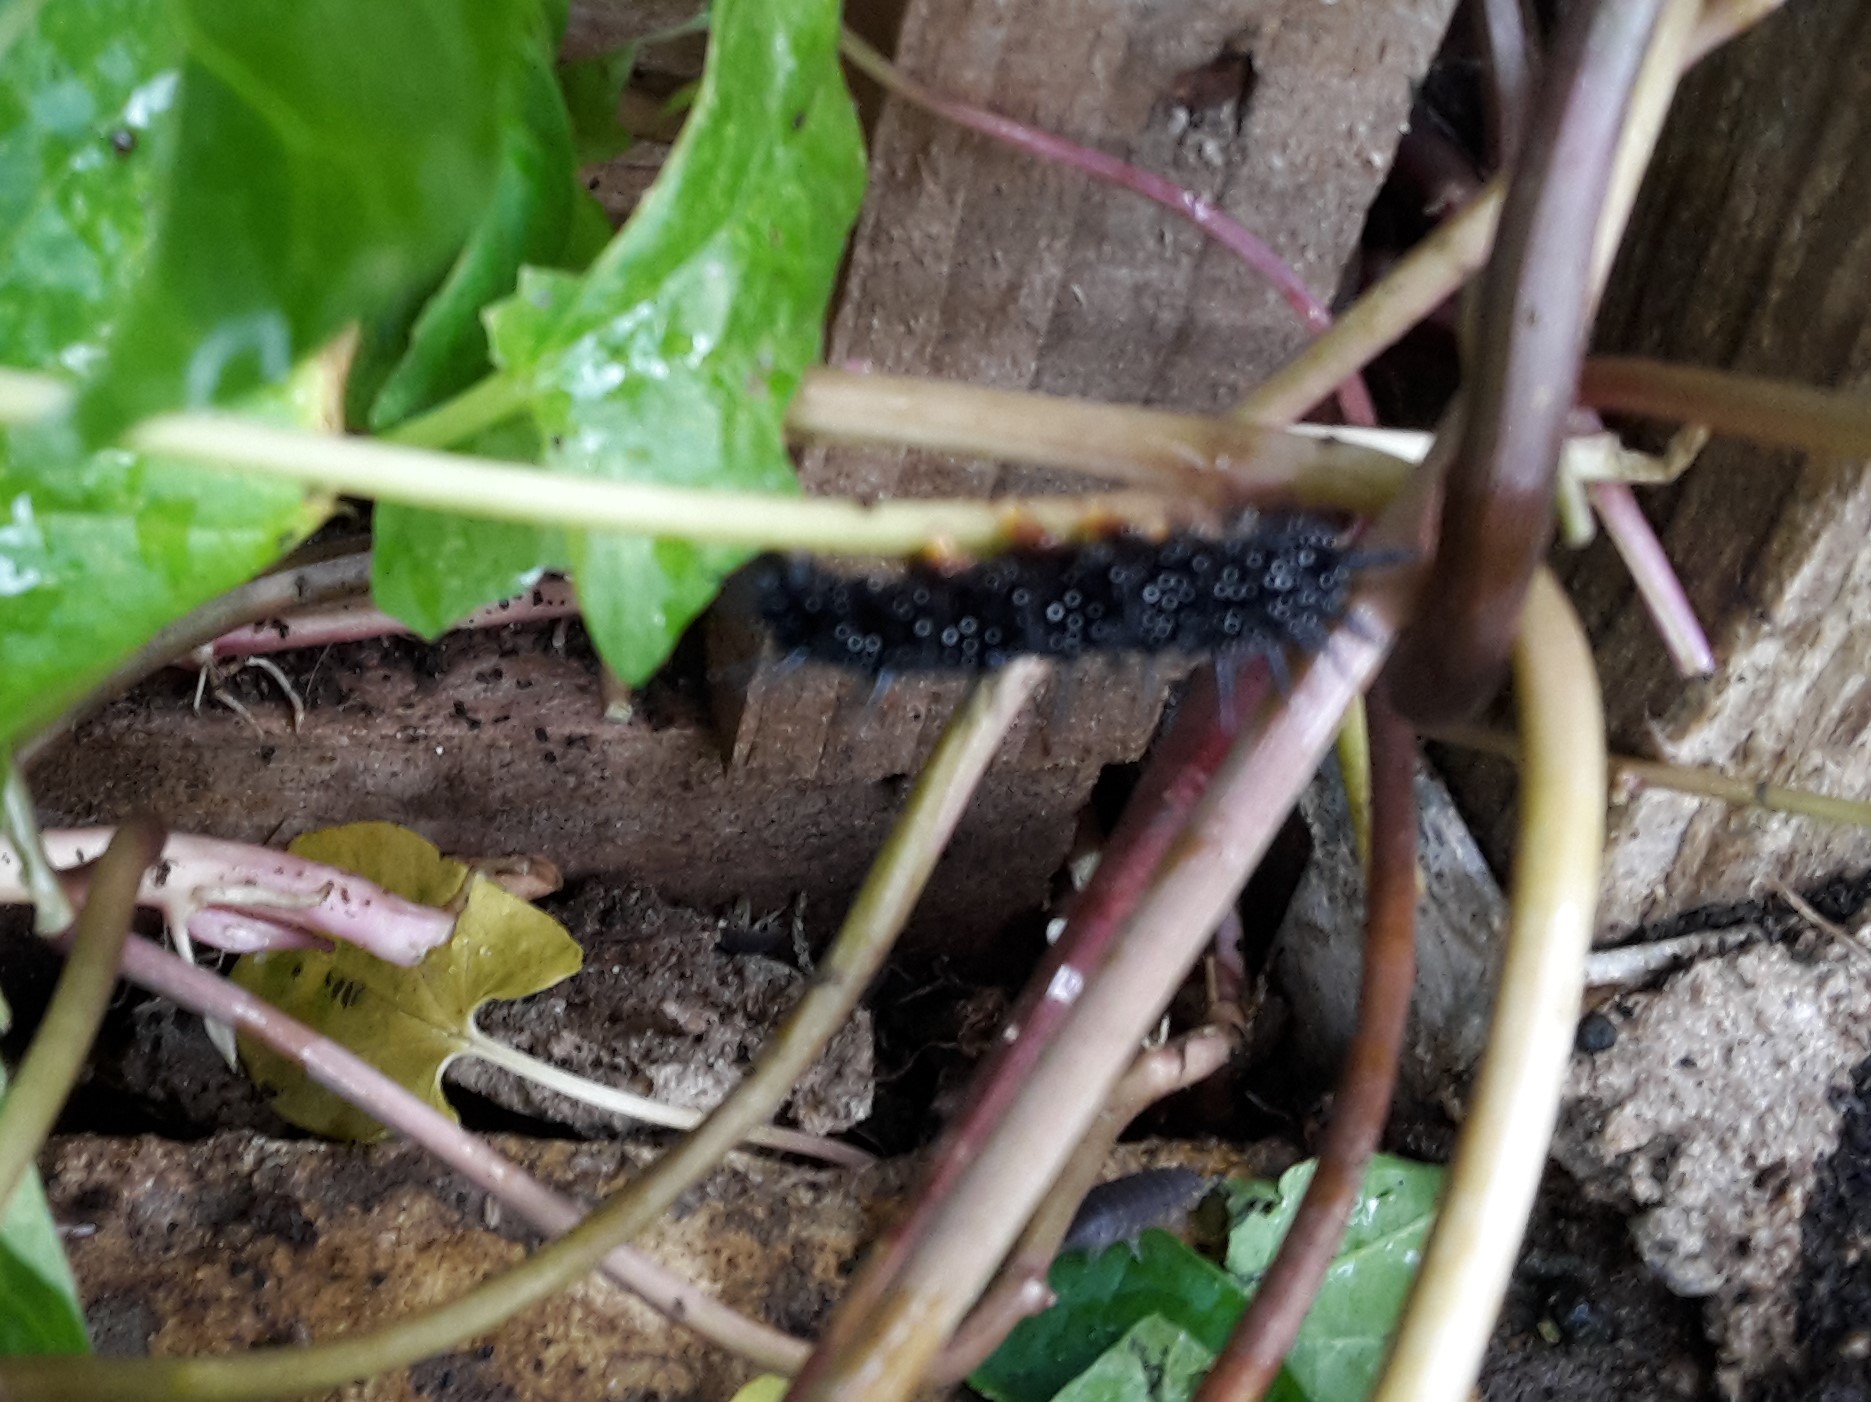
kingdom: Animalia
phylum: Arthropoda
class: Insecta
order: Lepidoptera
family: Nymphalidae
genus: Aglais
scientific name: Aglais io
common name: Peacock
